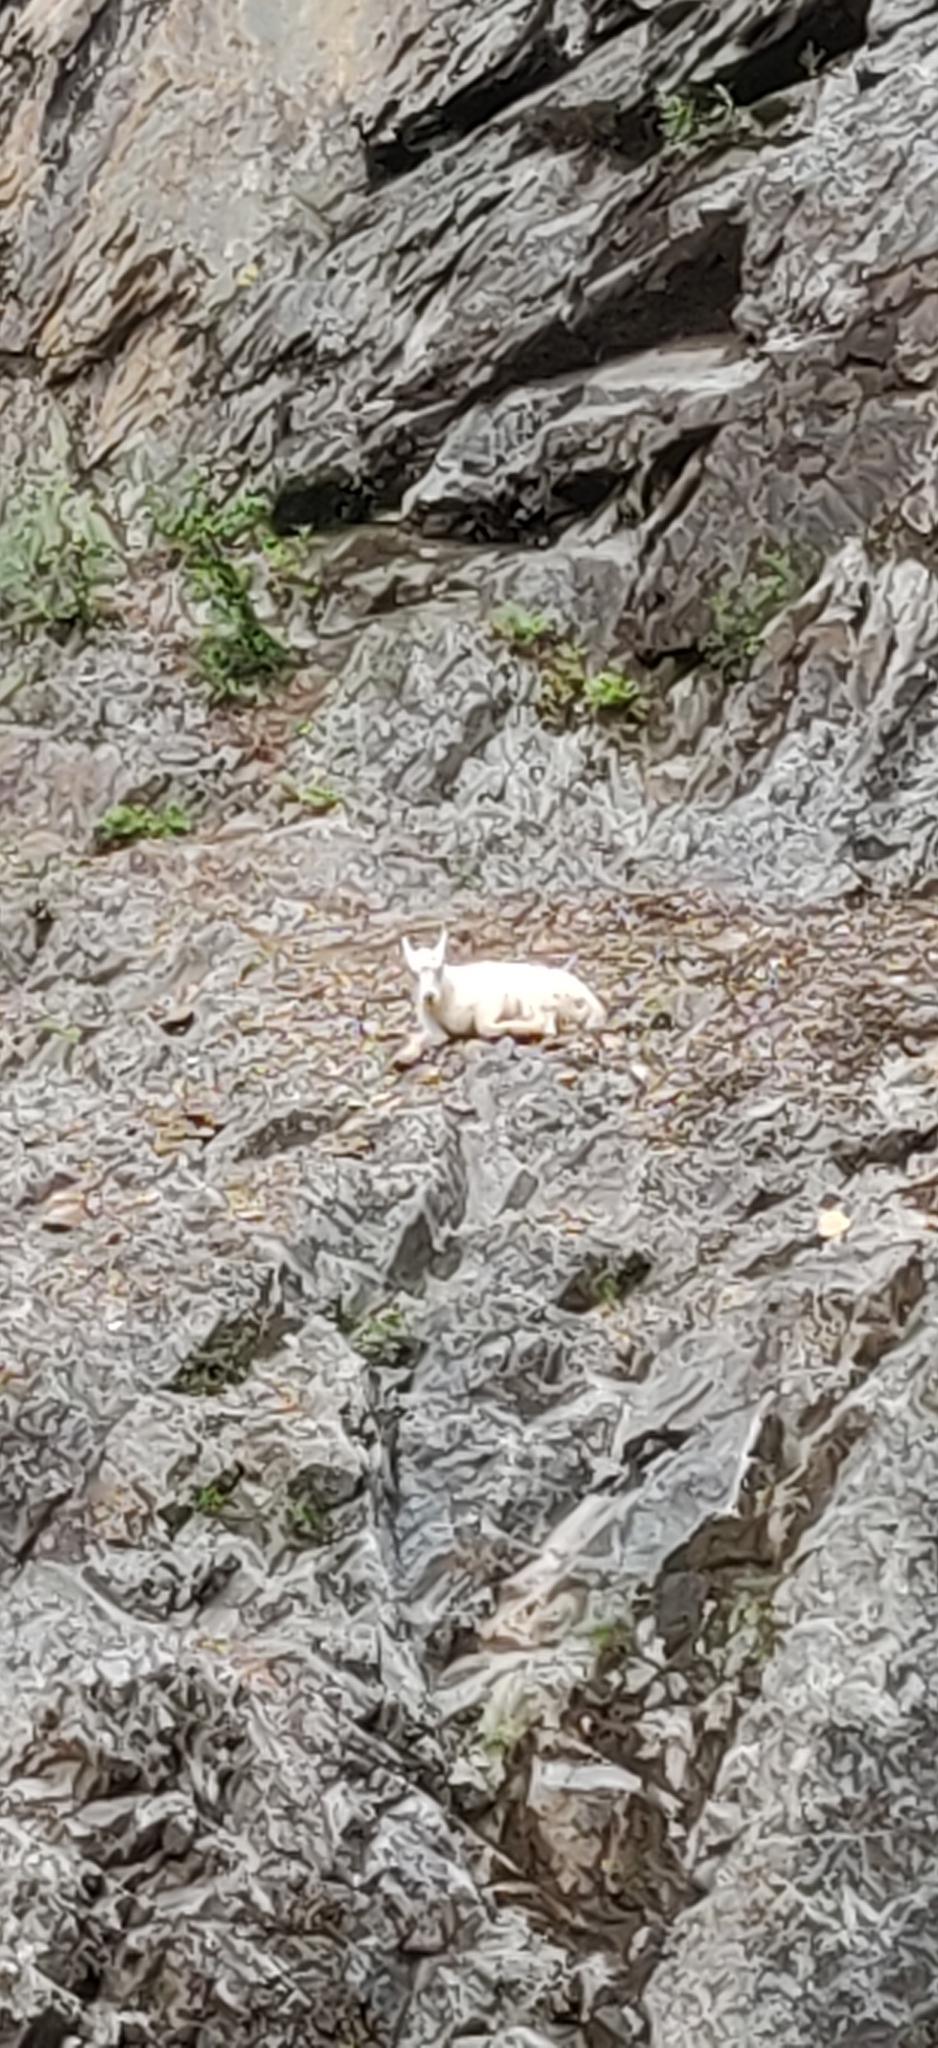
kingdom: Animalia
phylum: Chordata
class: Mammalia
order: Artiodactyla
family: Bovidae
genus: Oreamnos
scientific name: Oreamnos americanus
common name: Mountain goat
